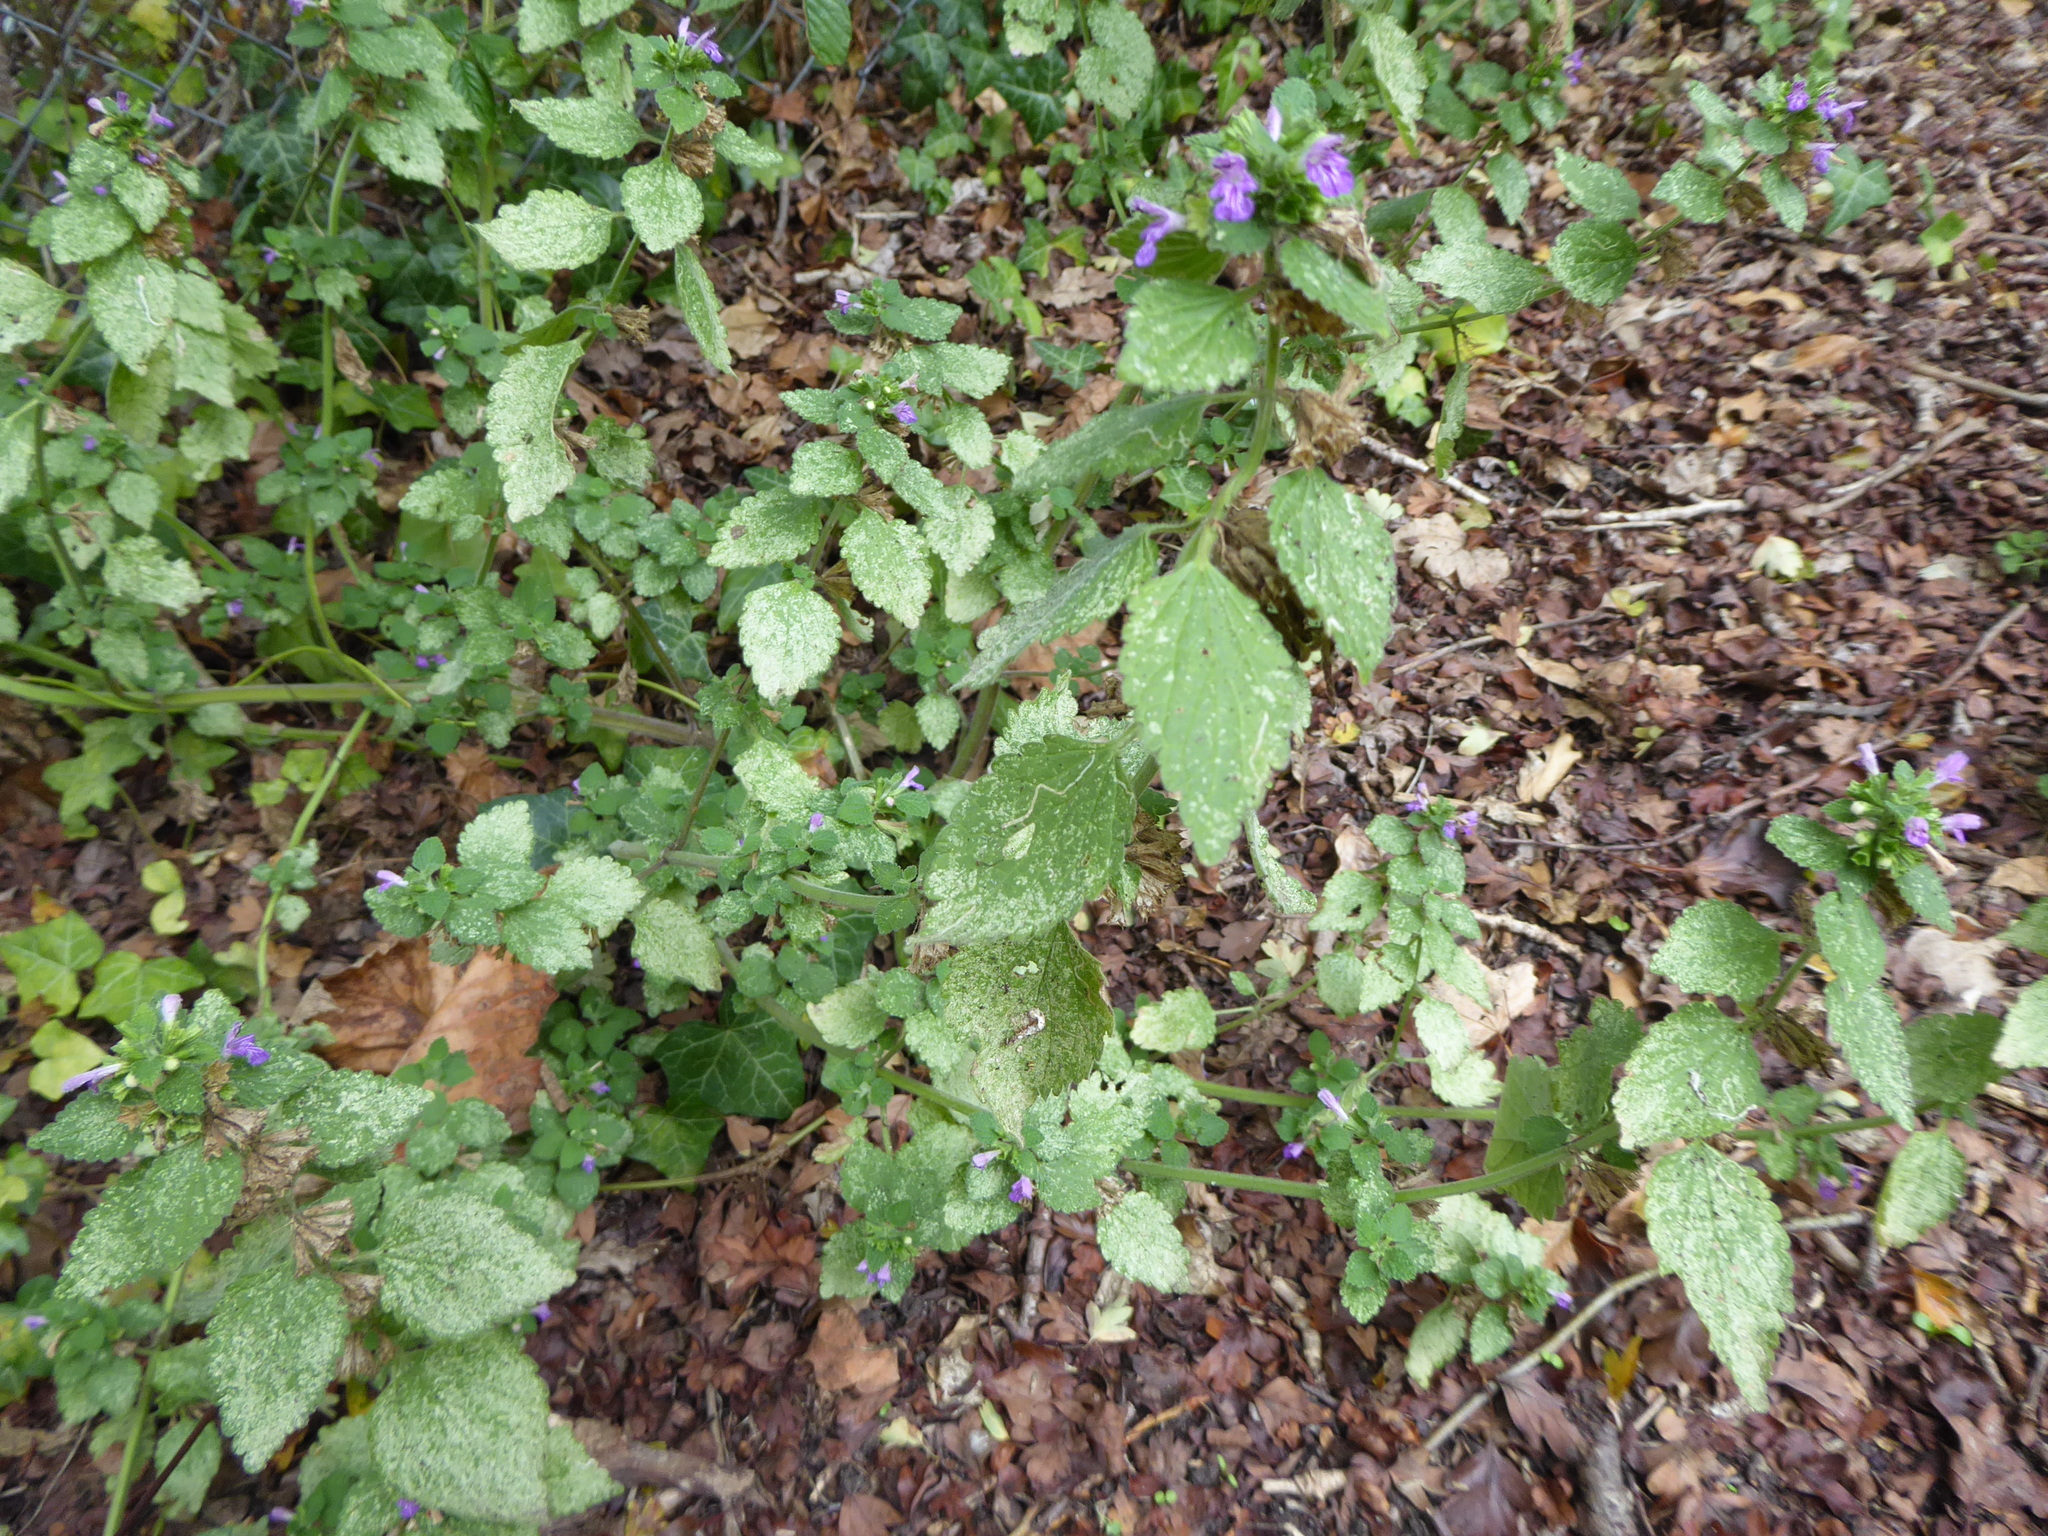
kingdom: Plantae
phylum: Tracheophyta
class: Magnoliopsida
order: Lamiales
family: Lamiaceae
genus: Ballota
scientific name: Ballota nigra
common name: Black horehound
